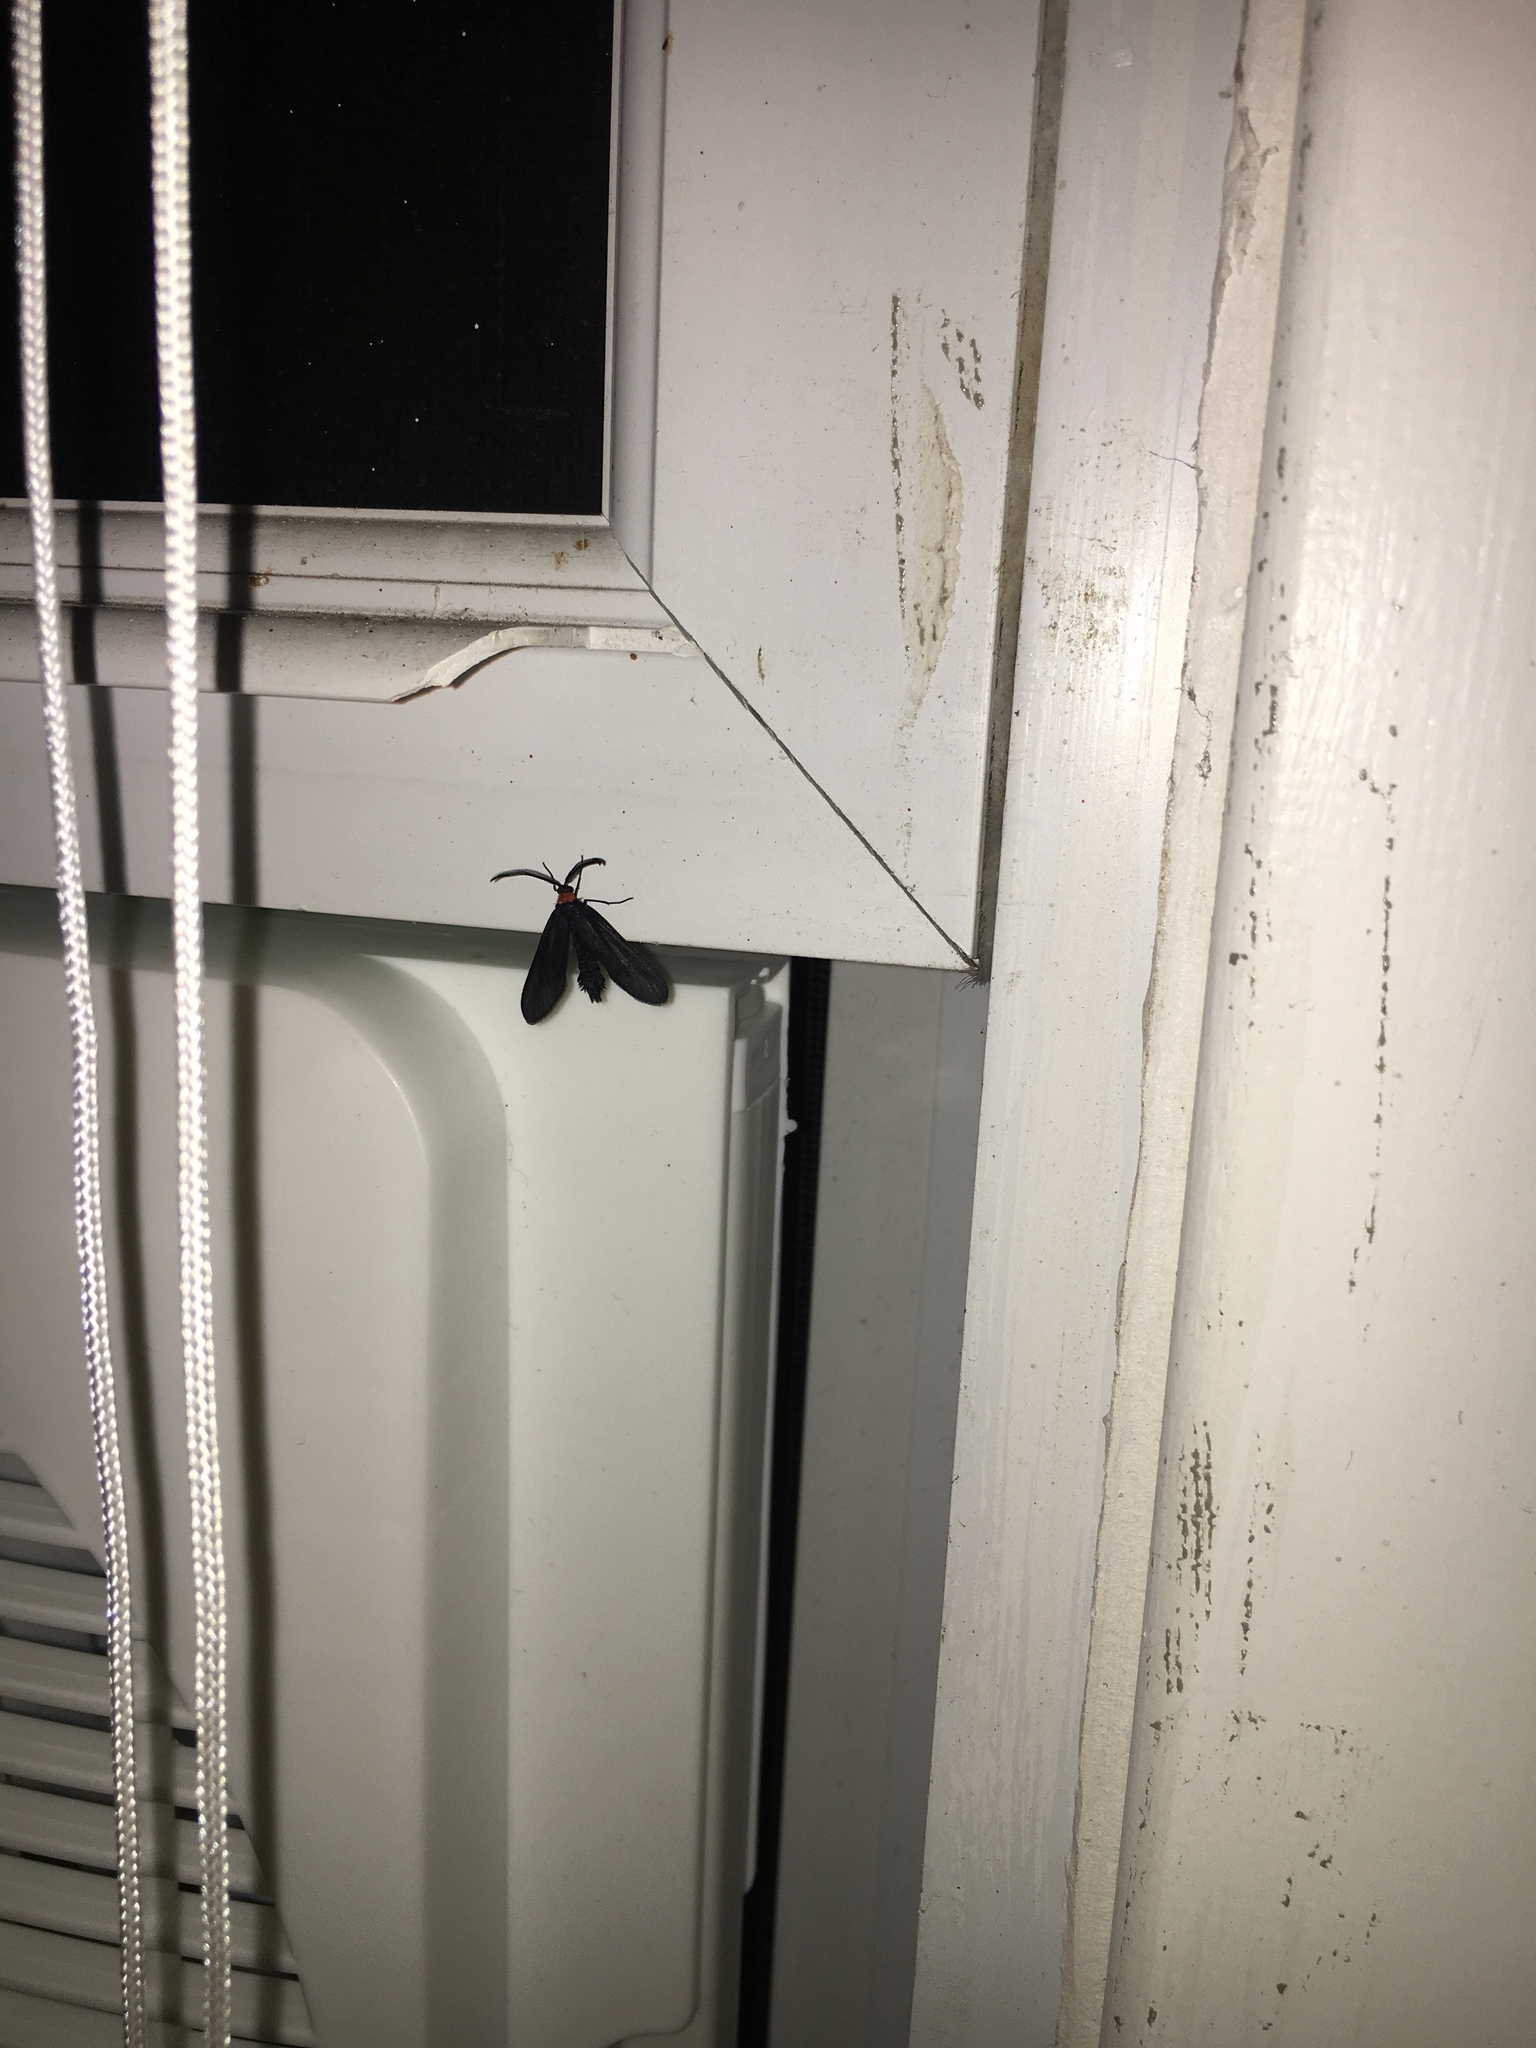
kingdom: Animalia
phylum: Arthropoda
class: Insecta
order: Lepidoptera
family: Zygaenidae
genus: Harrisina
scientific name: Harrisina americana
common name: Grapeleaf skeletonizer moth
